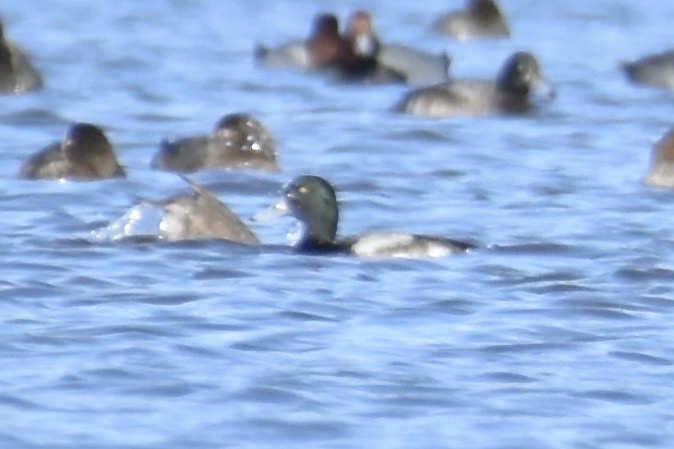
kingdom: Animalia
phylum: Chordata
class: Aves
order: Anseriformes
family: Anatidae
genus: Aythya
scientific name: Aythya marila
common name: Greater scaup
